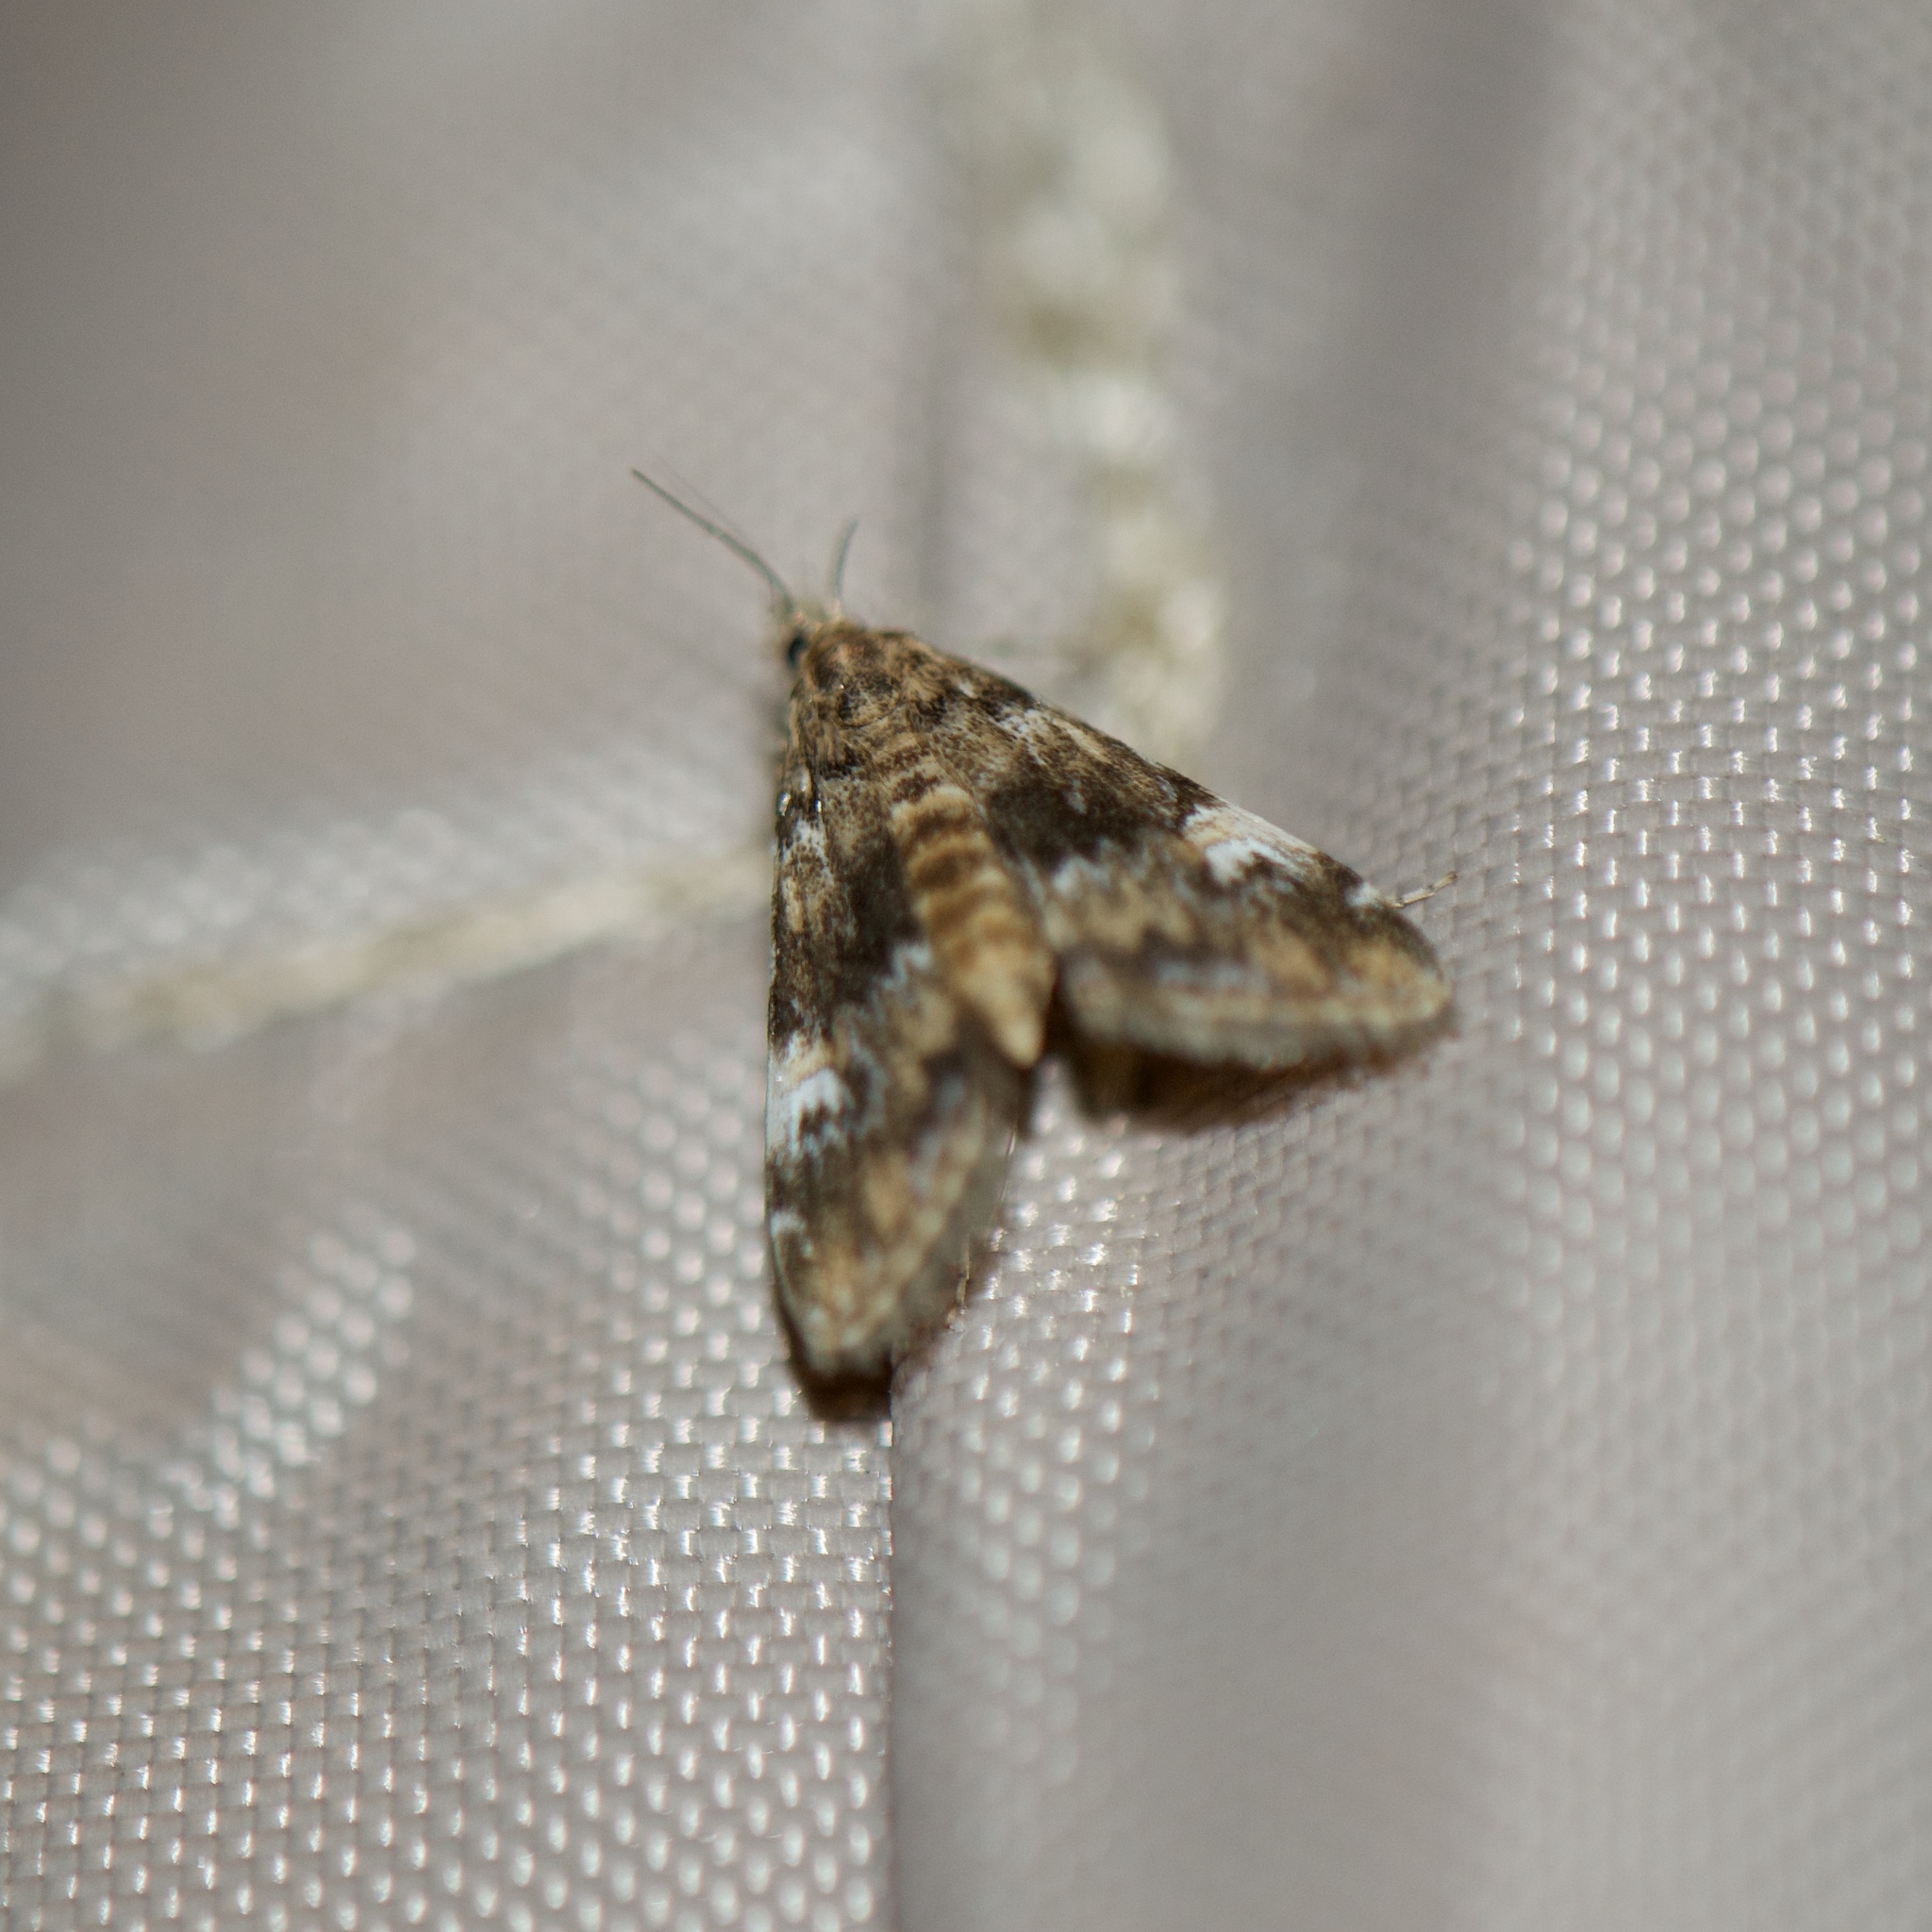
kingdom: Animalia
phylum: Arthropoda
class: Insecta
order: Lepidoptera
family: Crambidae
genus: Elophila
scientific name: Elophila obliteralis
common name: Waterlily leafcutter moth
